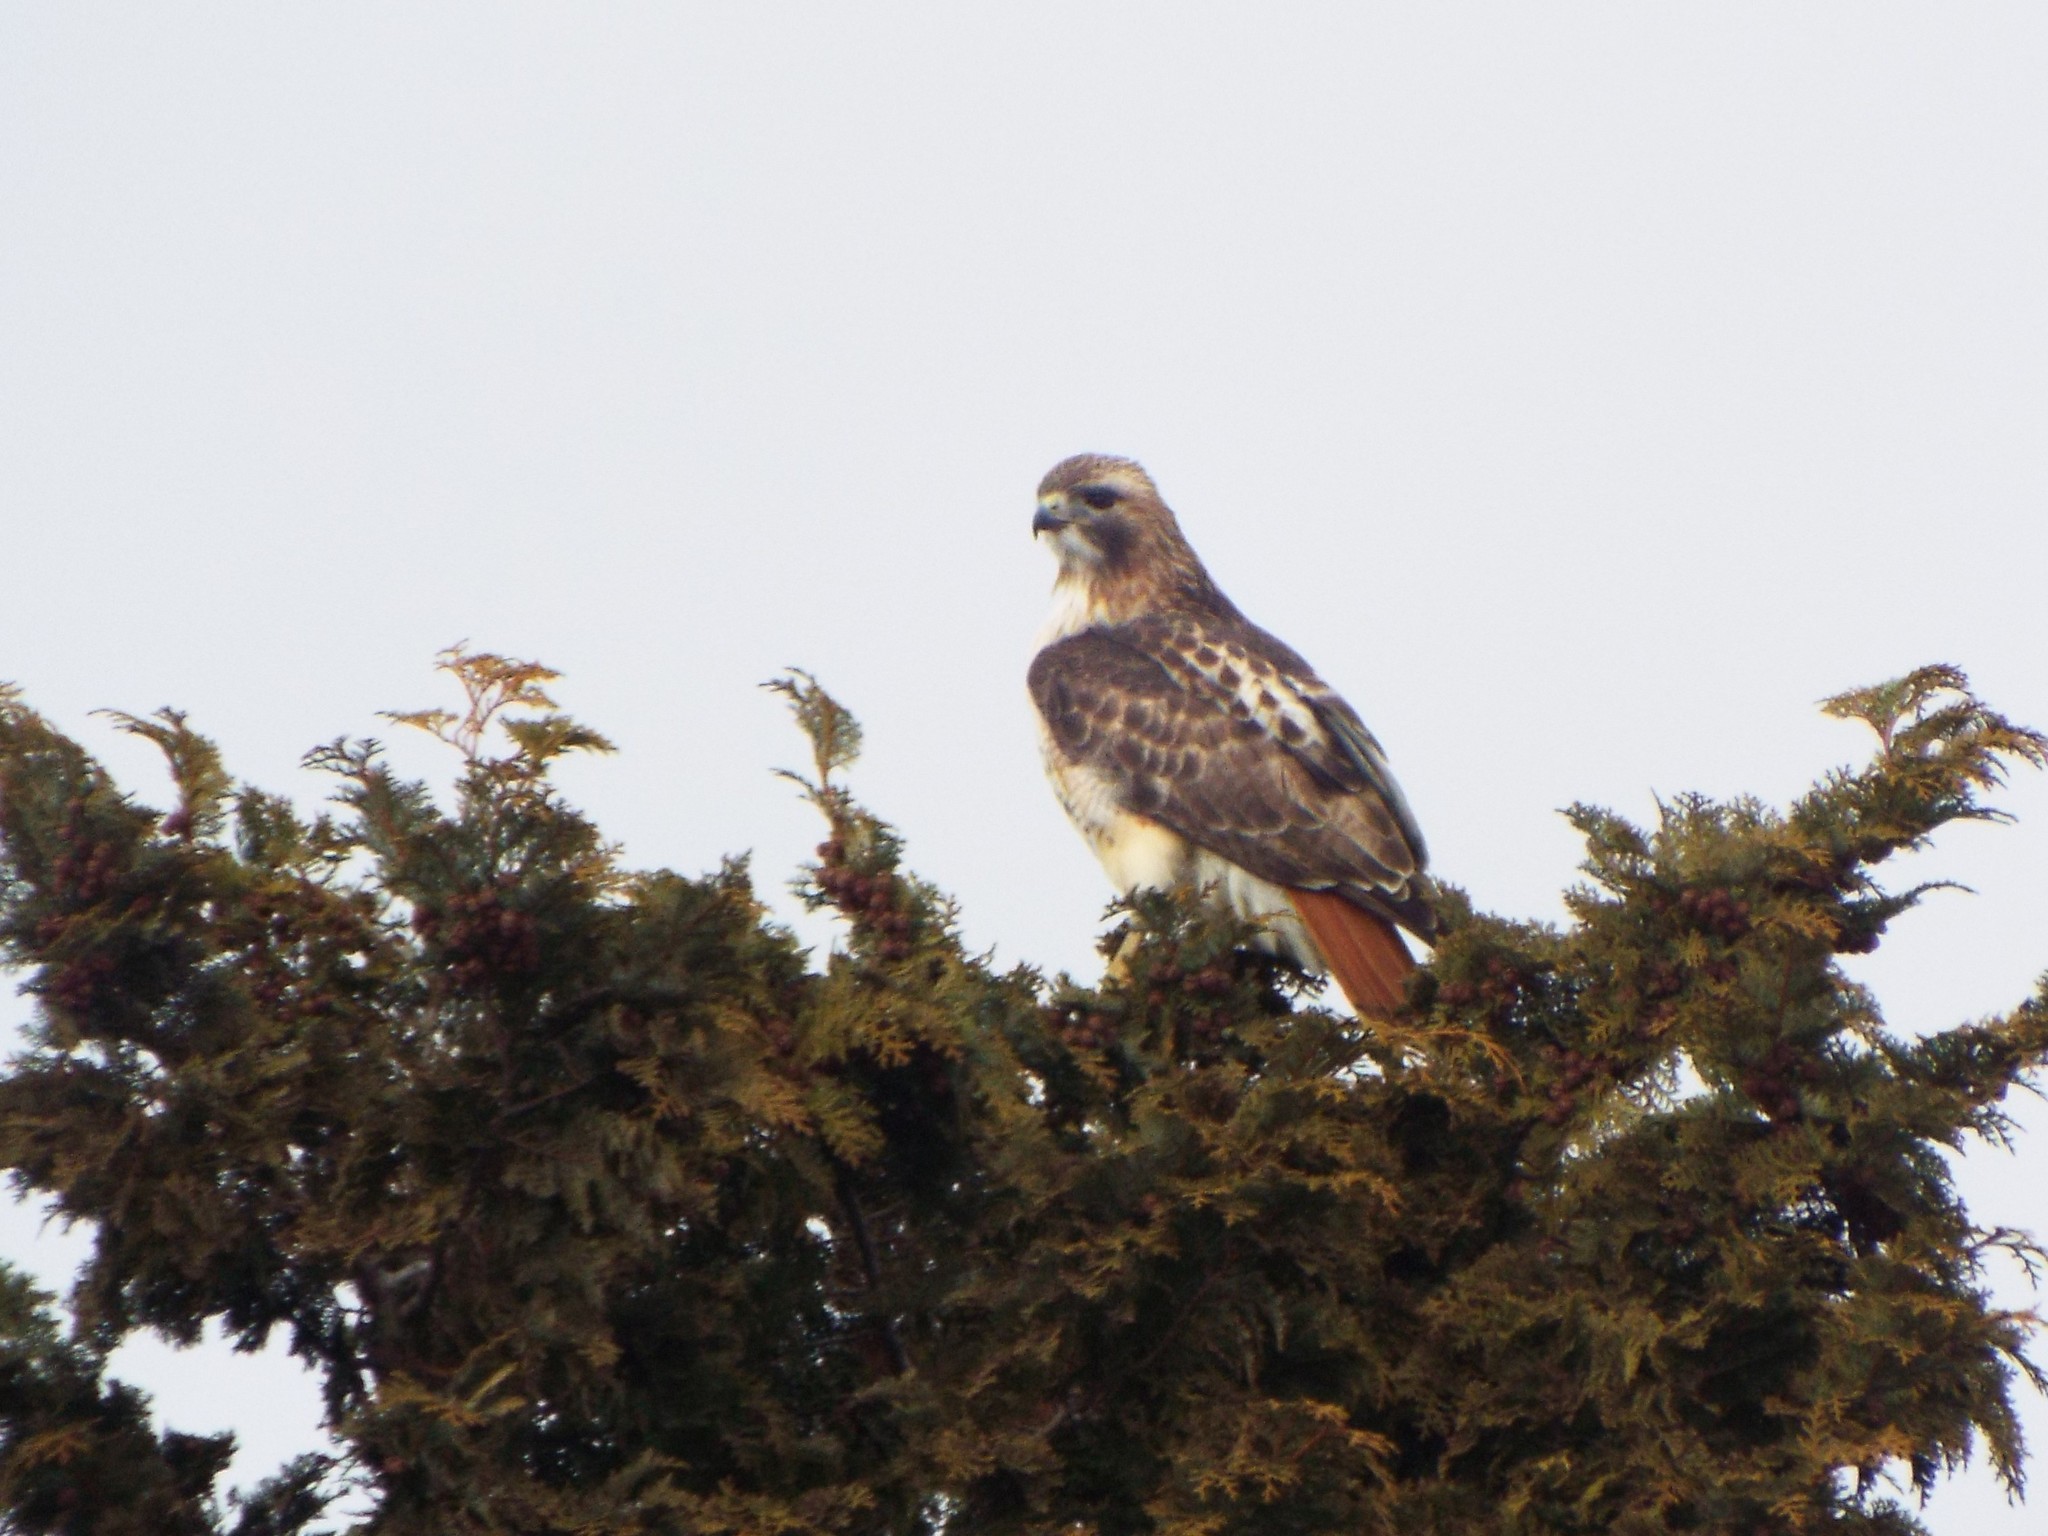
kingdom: Animalia
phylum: Chordata
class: Aves
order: Accipitriformes
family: Accipitridae
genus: Buteo
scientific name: Buteo jamaicensis
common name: Red-tailed hawk
